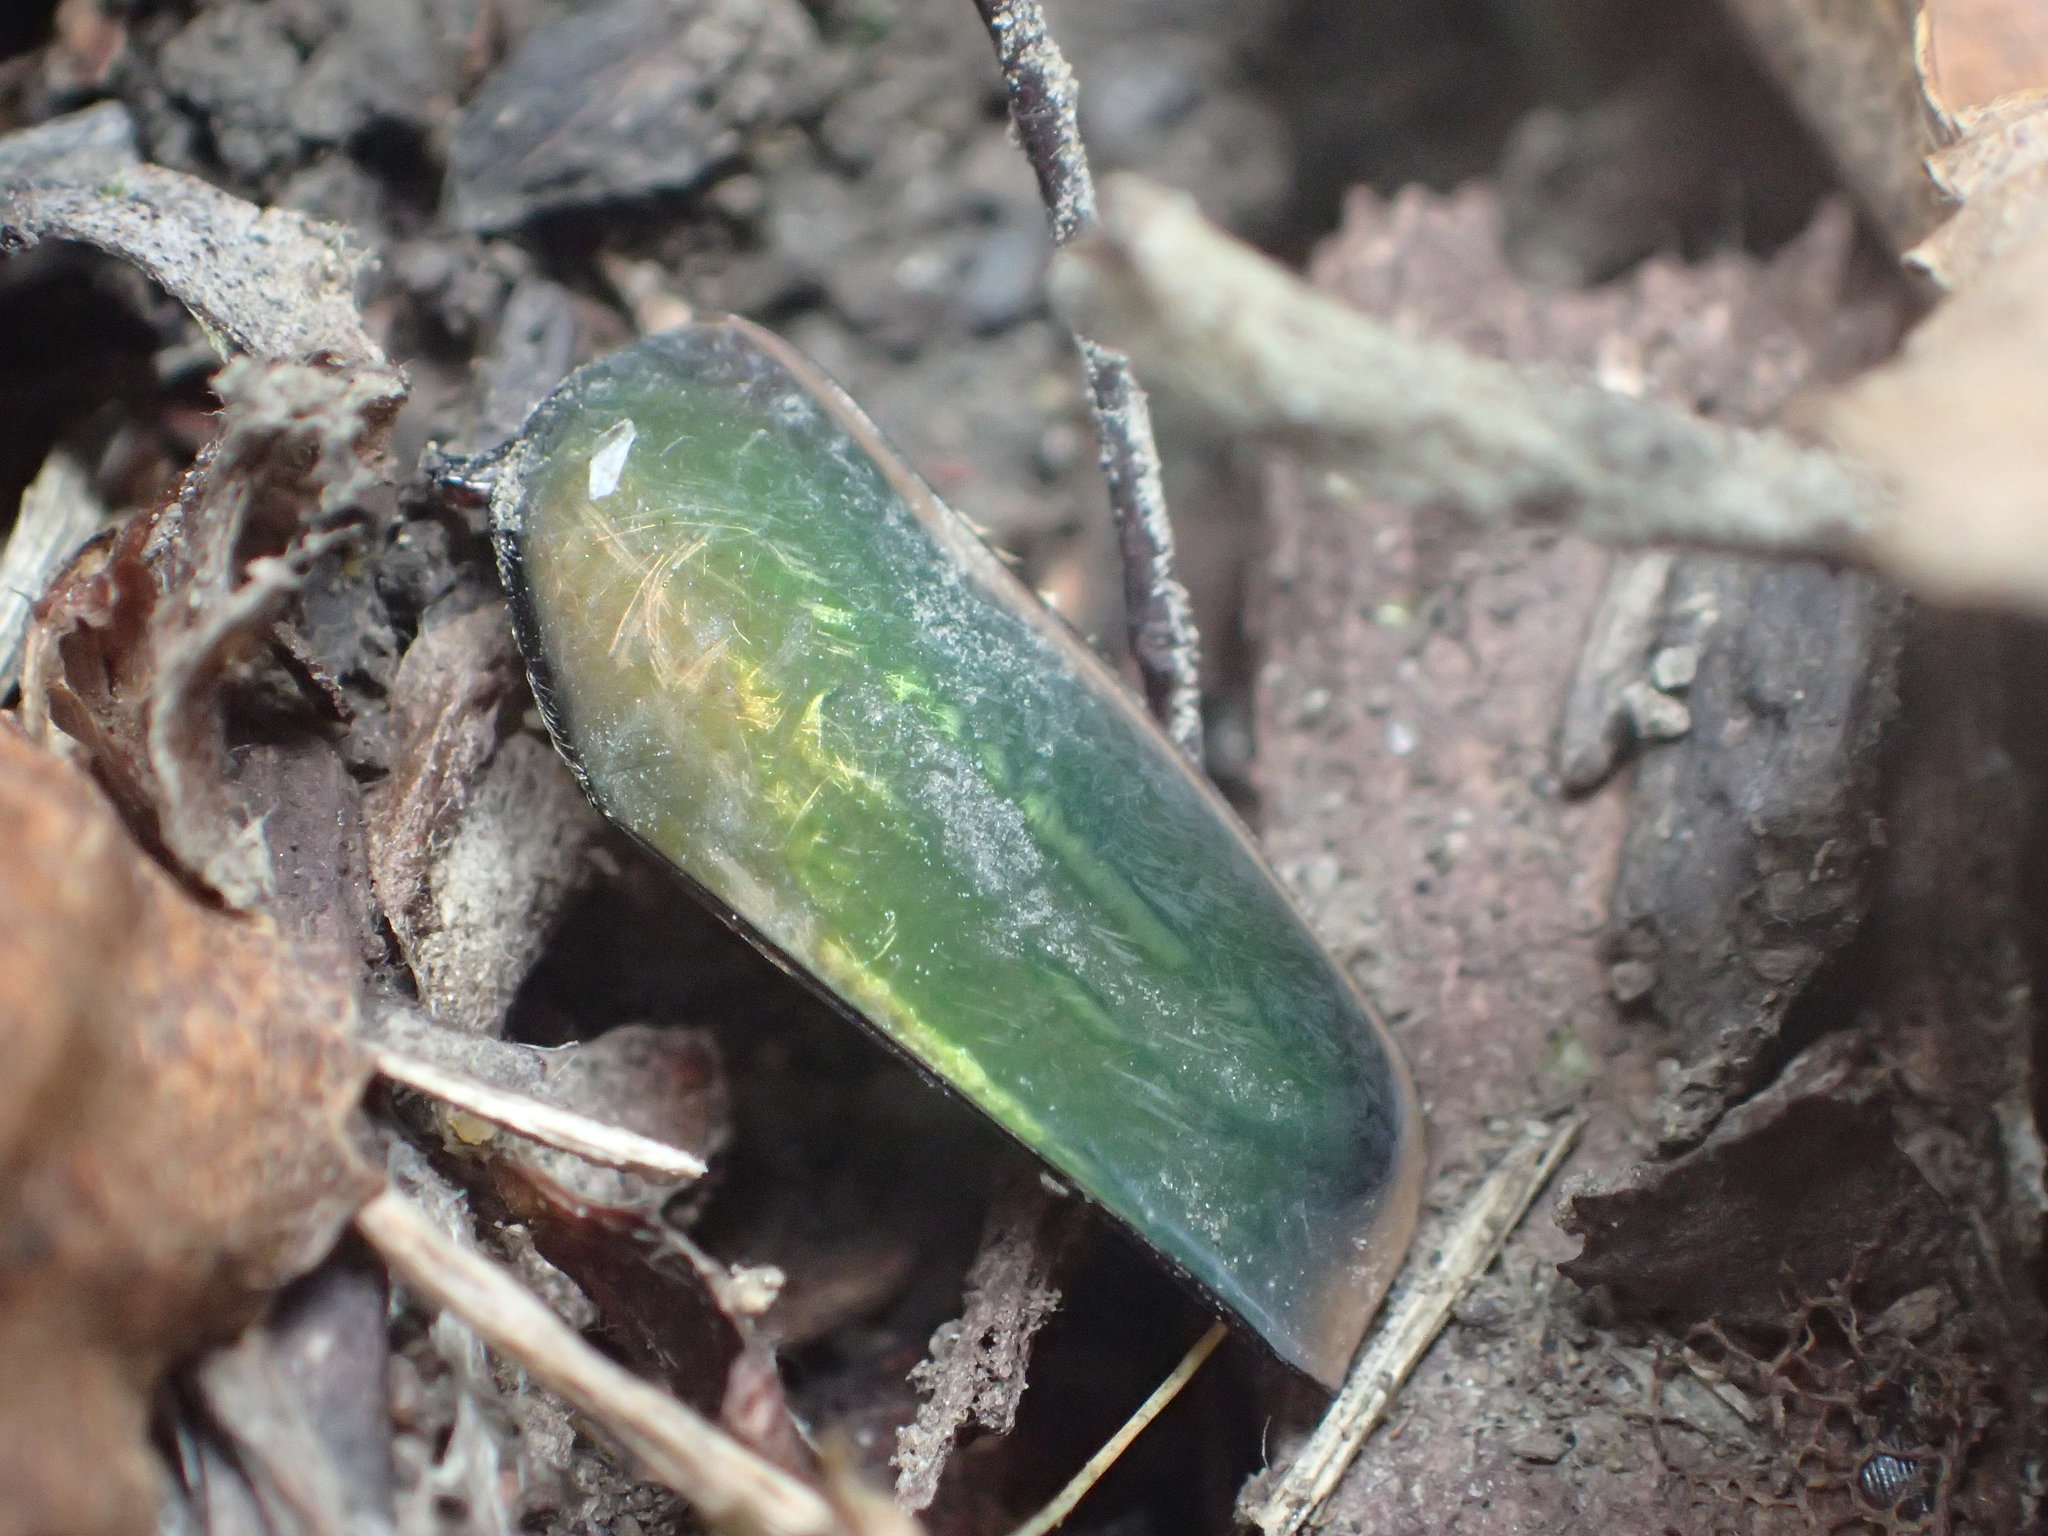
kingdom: Animalia
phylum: Arthropoda
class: Insecta
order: Coleoptera
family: Scarabaeidae
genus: Cotinis
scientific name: Cotinis nitida
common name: Common green june beetle
